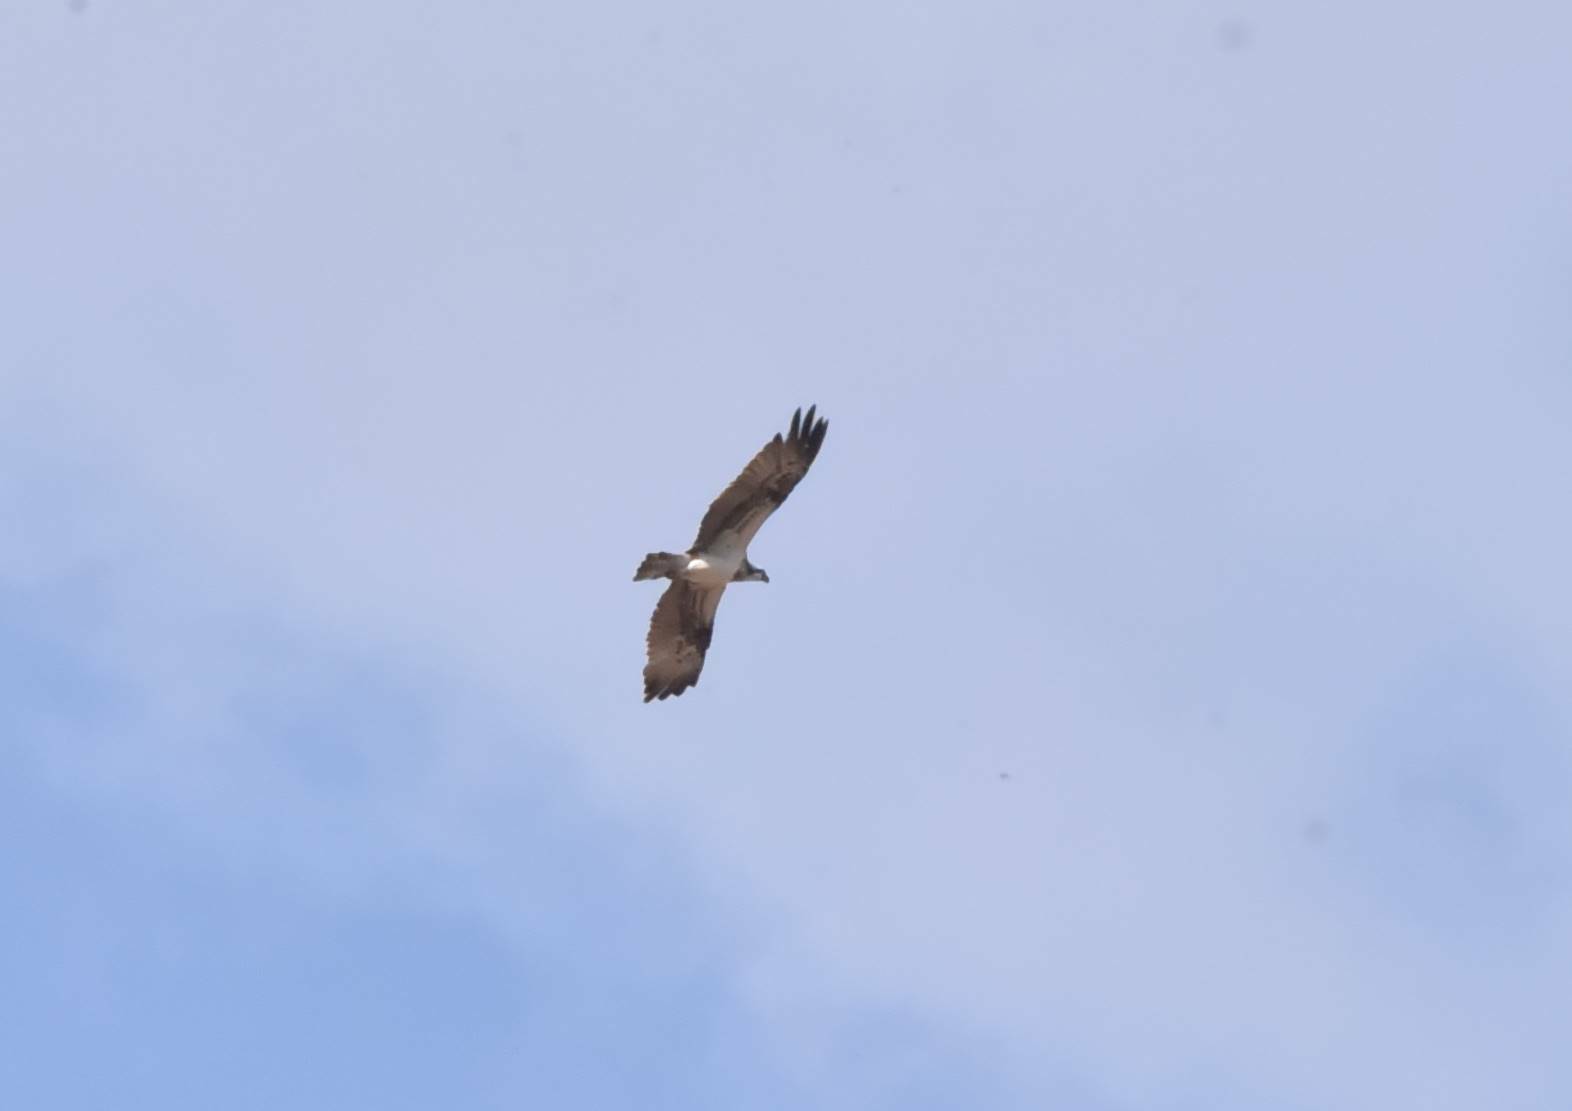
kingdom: Animalia
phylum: Chordata
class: Aves
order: Accipitriformes
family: Pandionidae
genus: Pandion
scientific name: Pandion haliaetus
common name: Osprey
